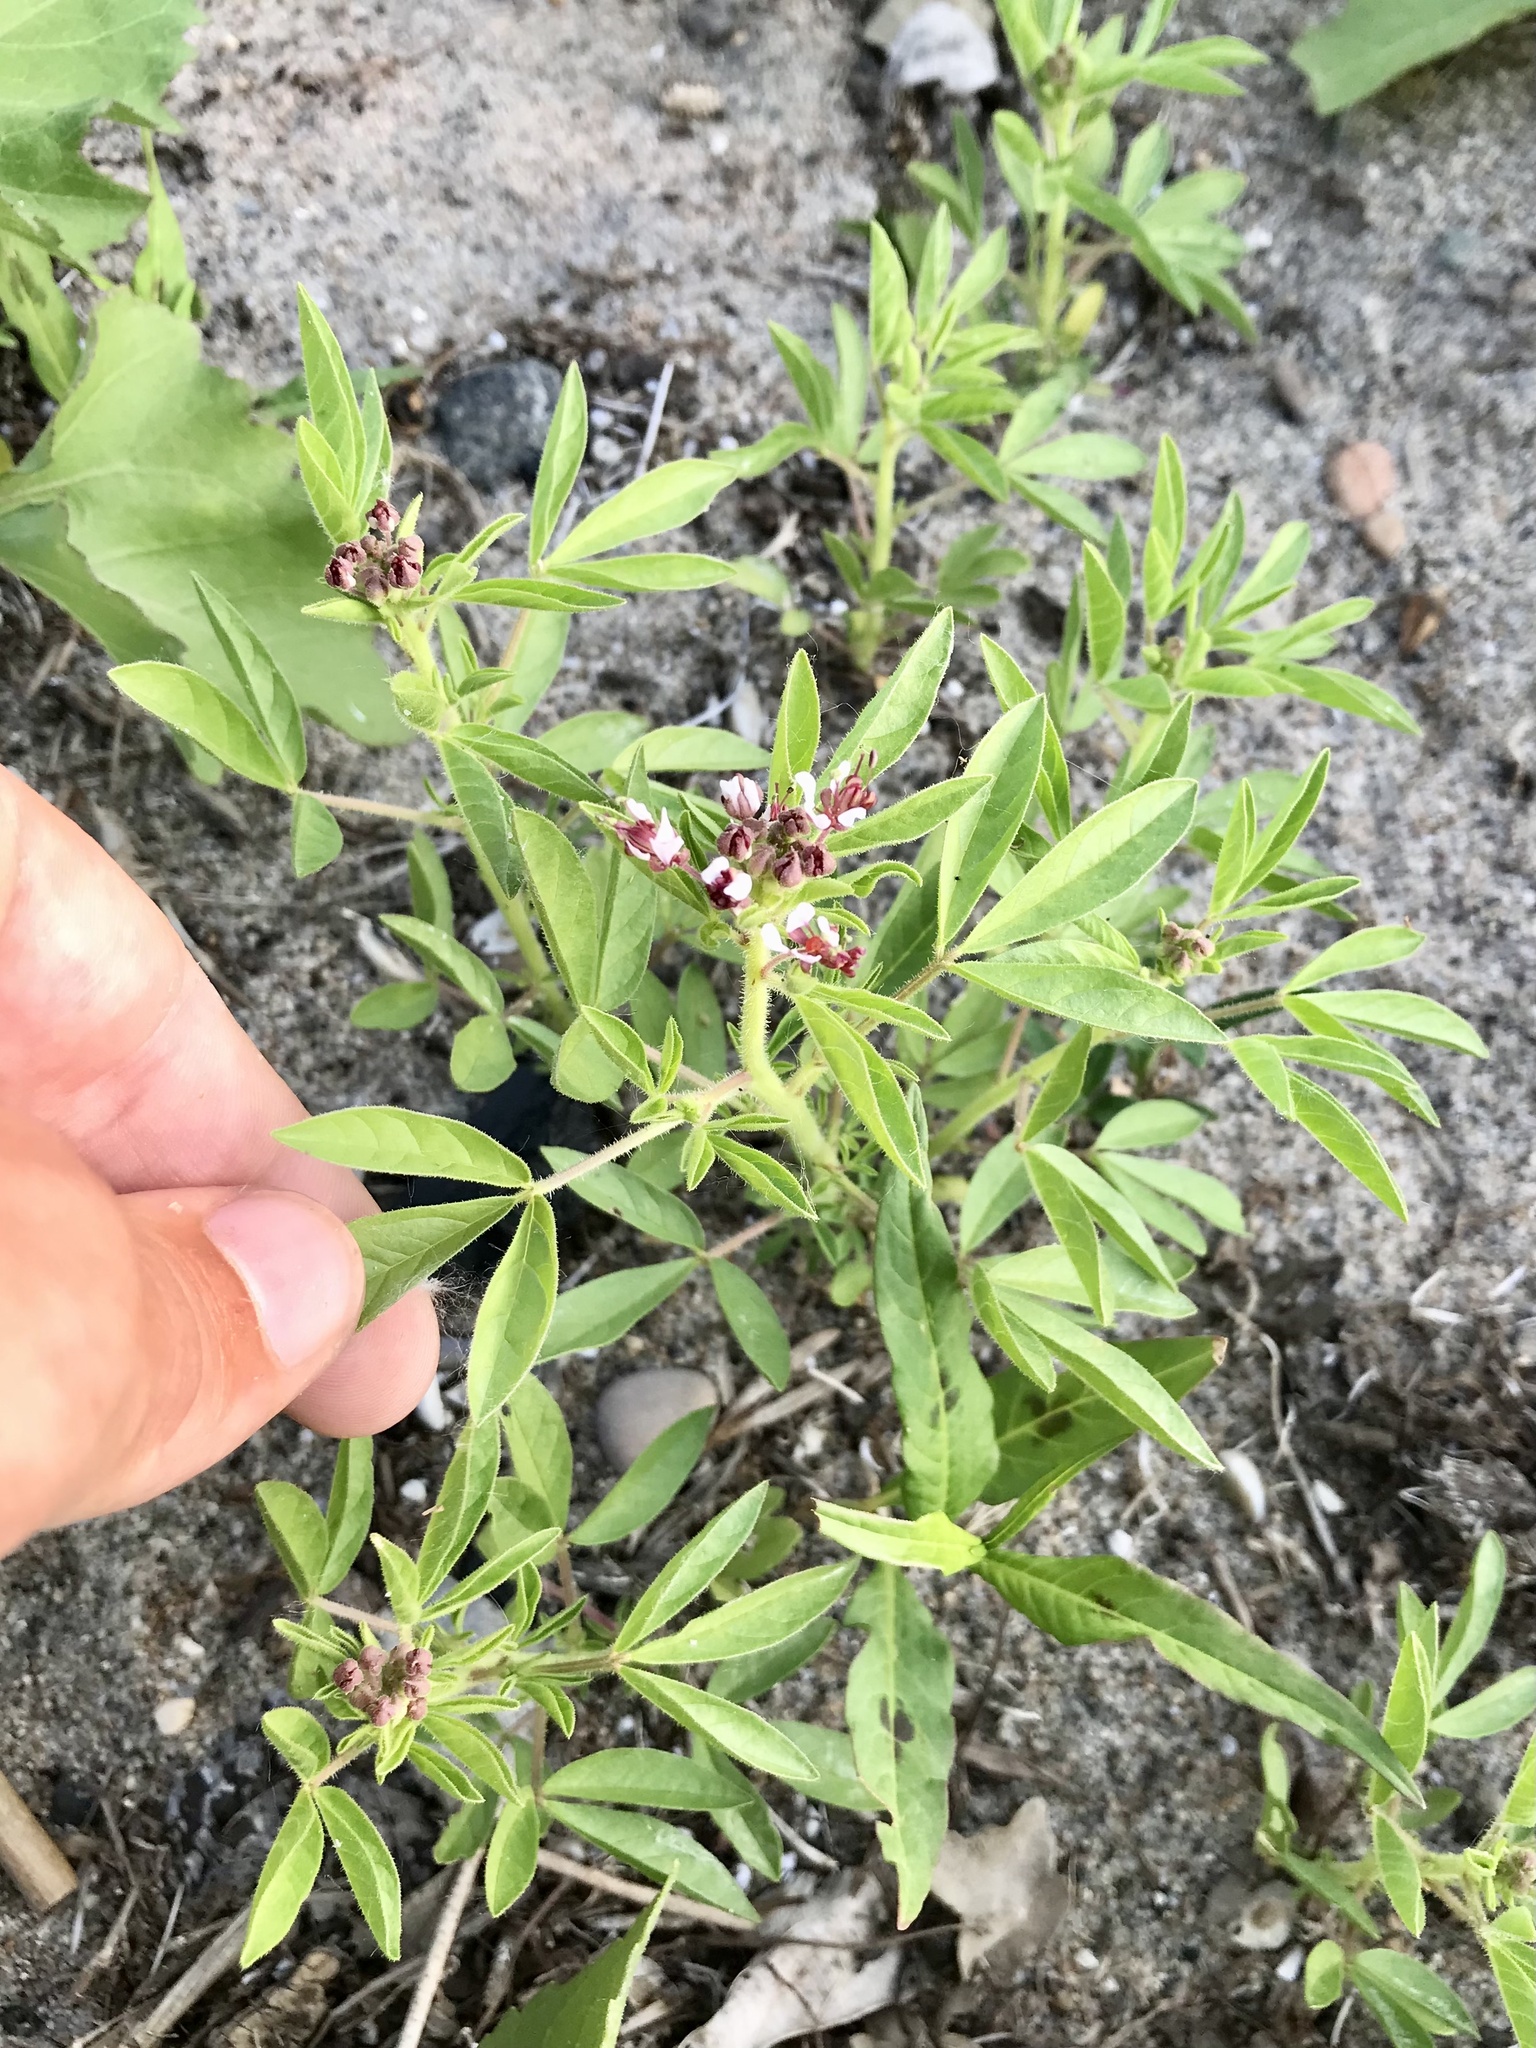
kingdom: Plantae
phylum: Tracheophyta
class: Magnoliopsida
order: Brassicales
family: Cleomaceae
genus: Polanisia
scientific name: Polanisia dodecandra
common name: Clammyweed
